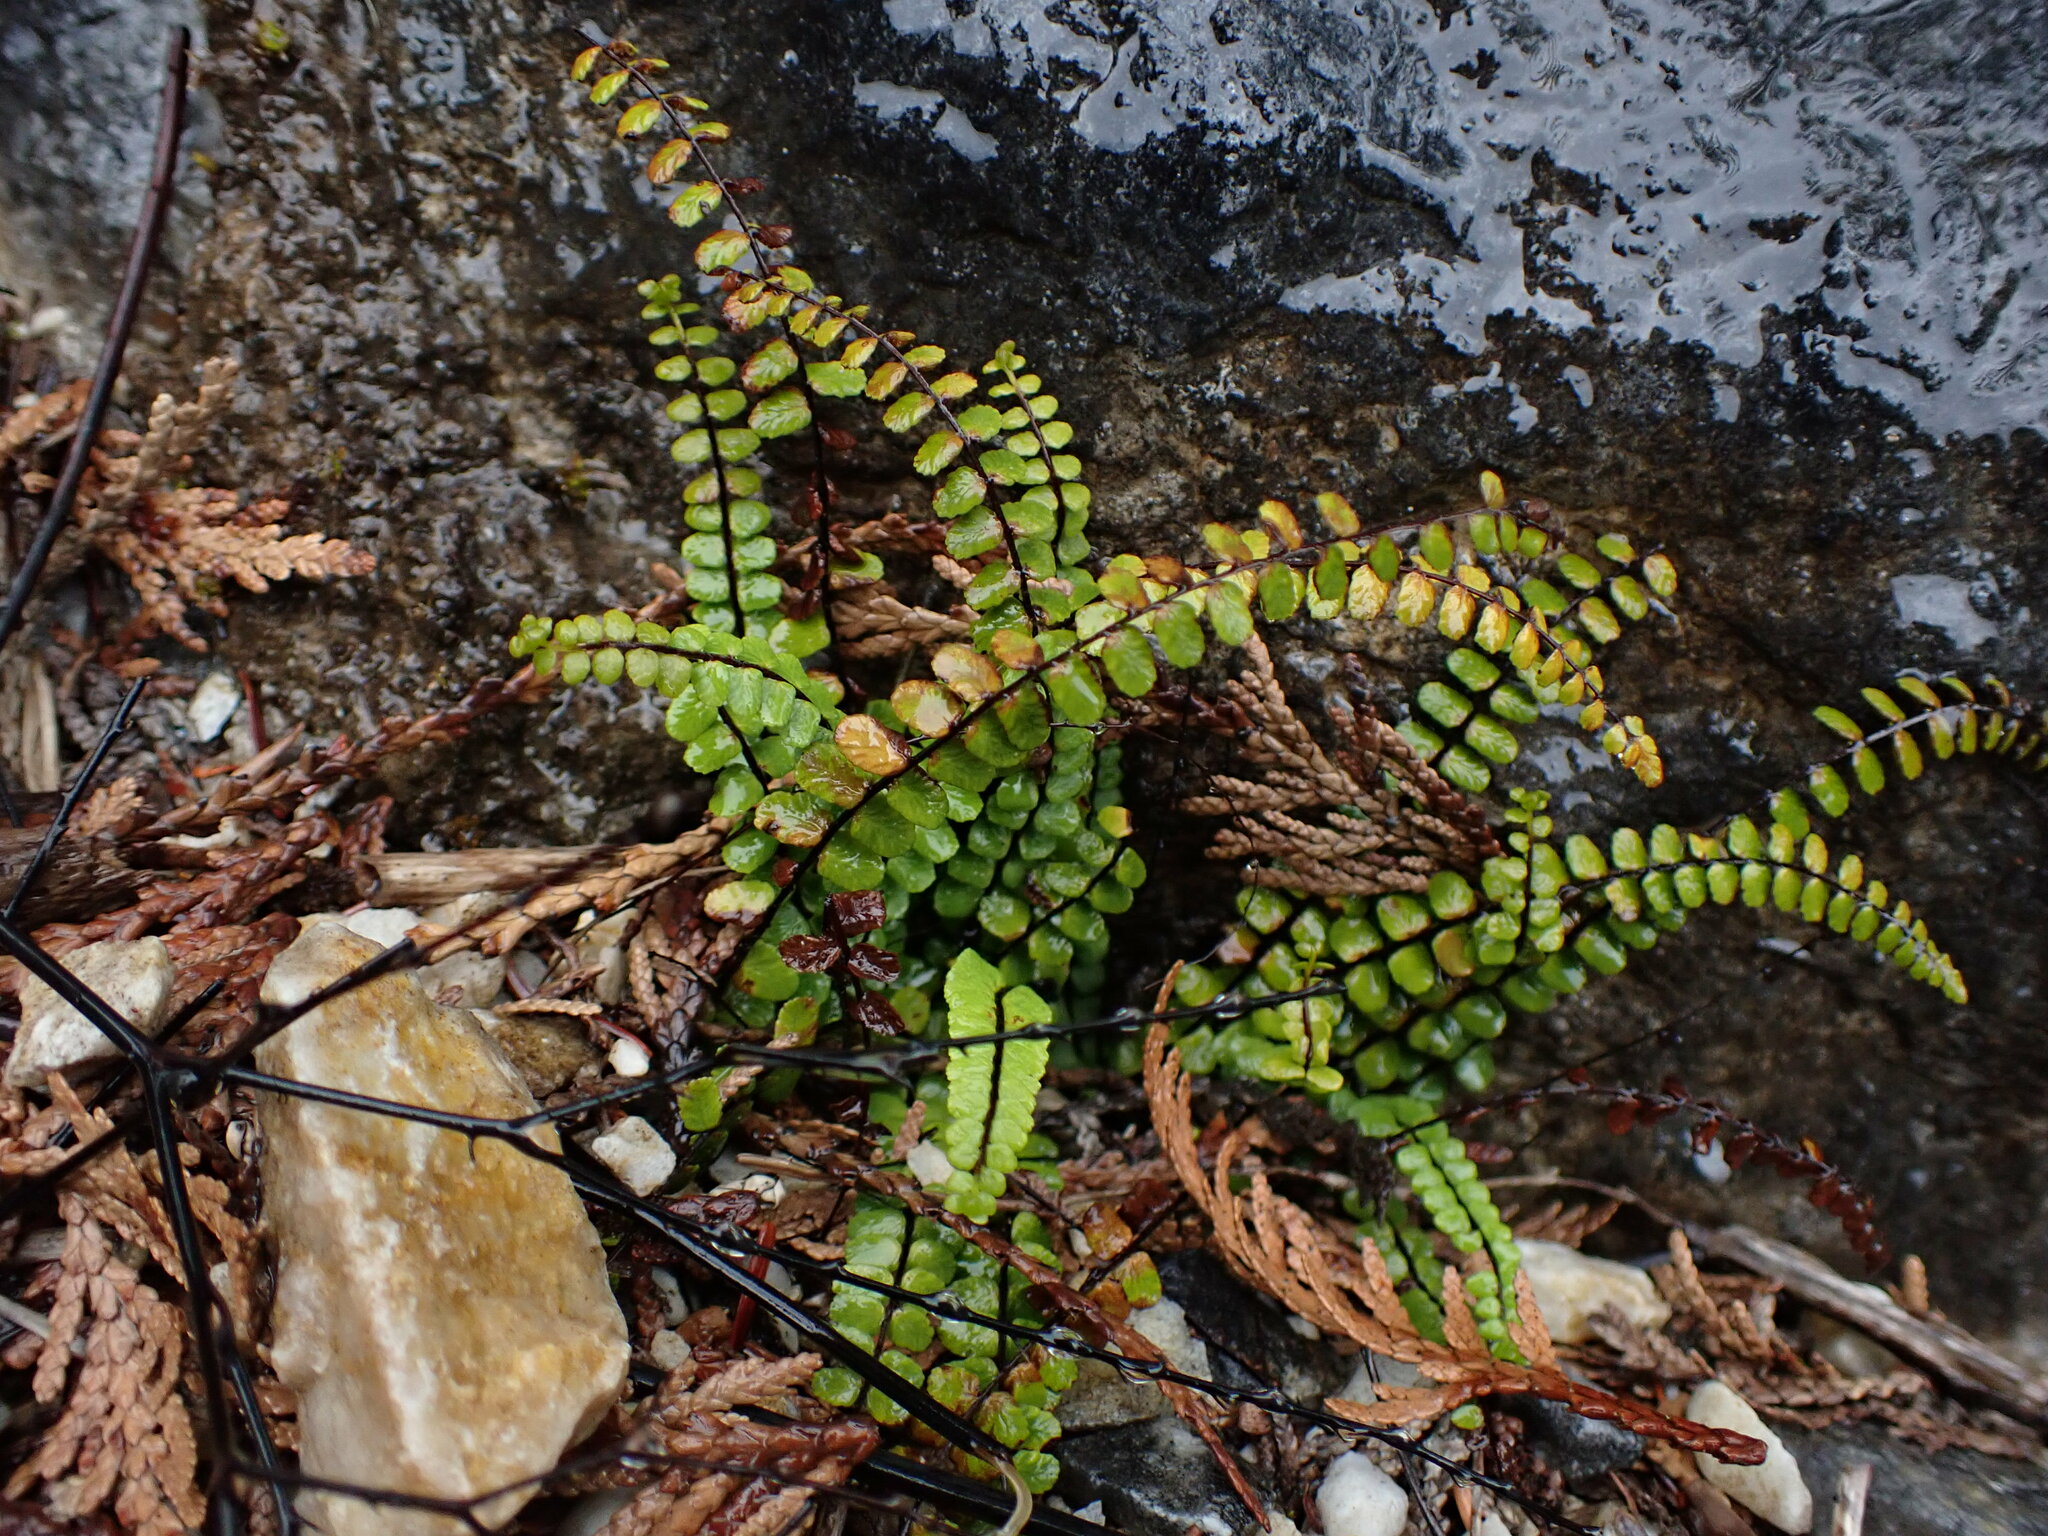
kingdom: Plantae
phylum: Tracheophyta
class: Polypodiopsida
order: Polypodiales
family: Aspleniaceae
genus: Asplenium
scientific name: Asplenium trichomanes
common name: Maidenhair spleenwort
